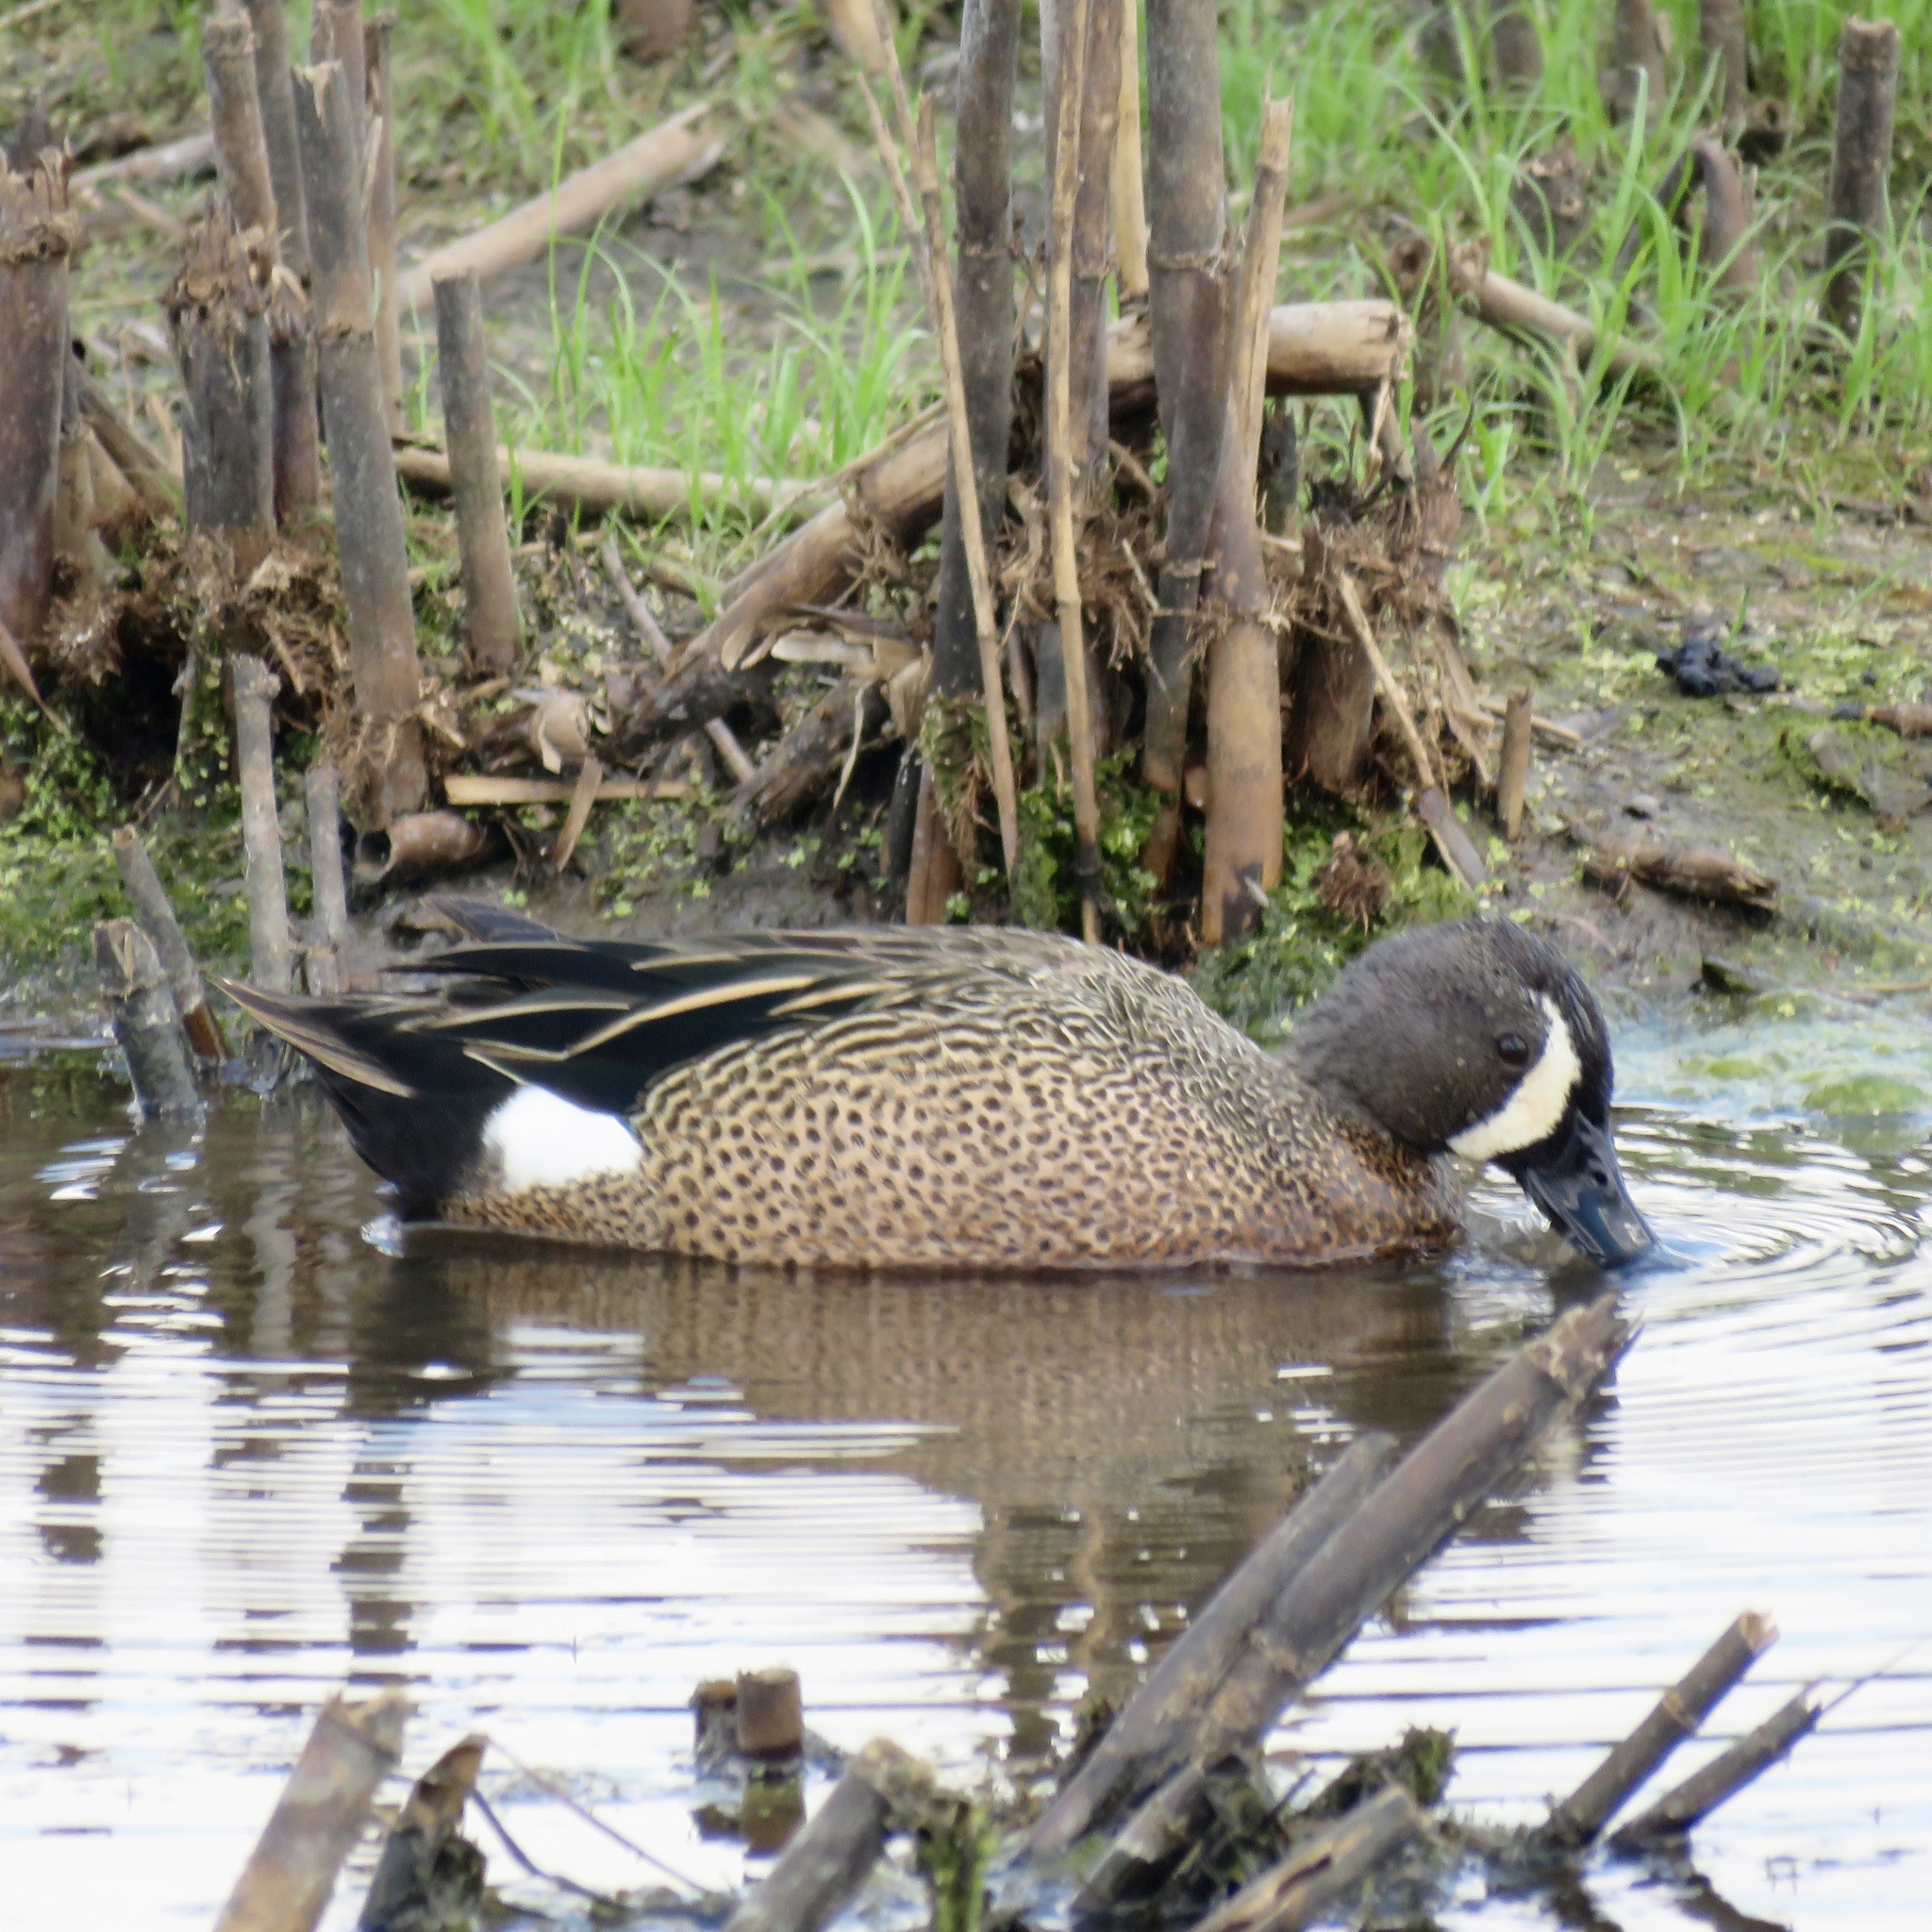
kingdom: Animalia
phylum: Chordata
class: Aves
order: Anseriformes
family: Anatidae
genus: Spatula
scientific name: Spatula discors
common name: Blue-winged teal
